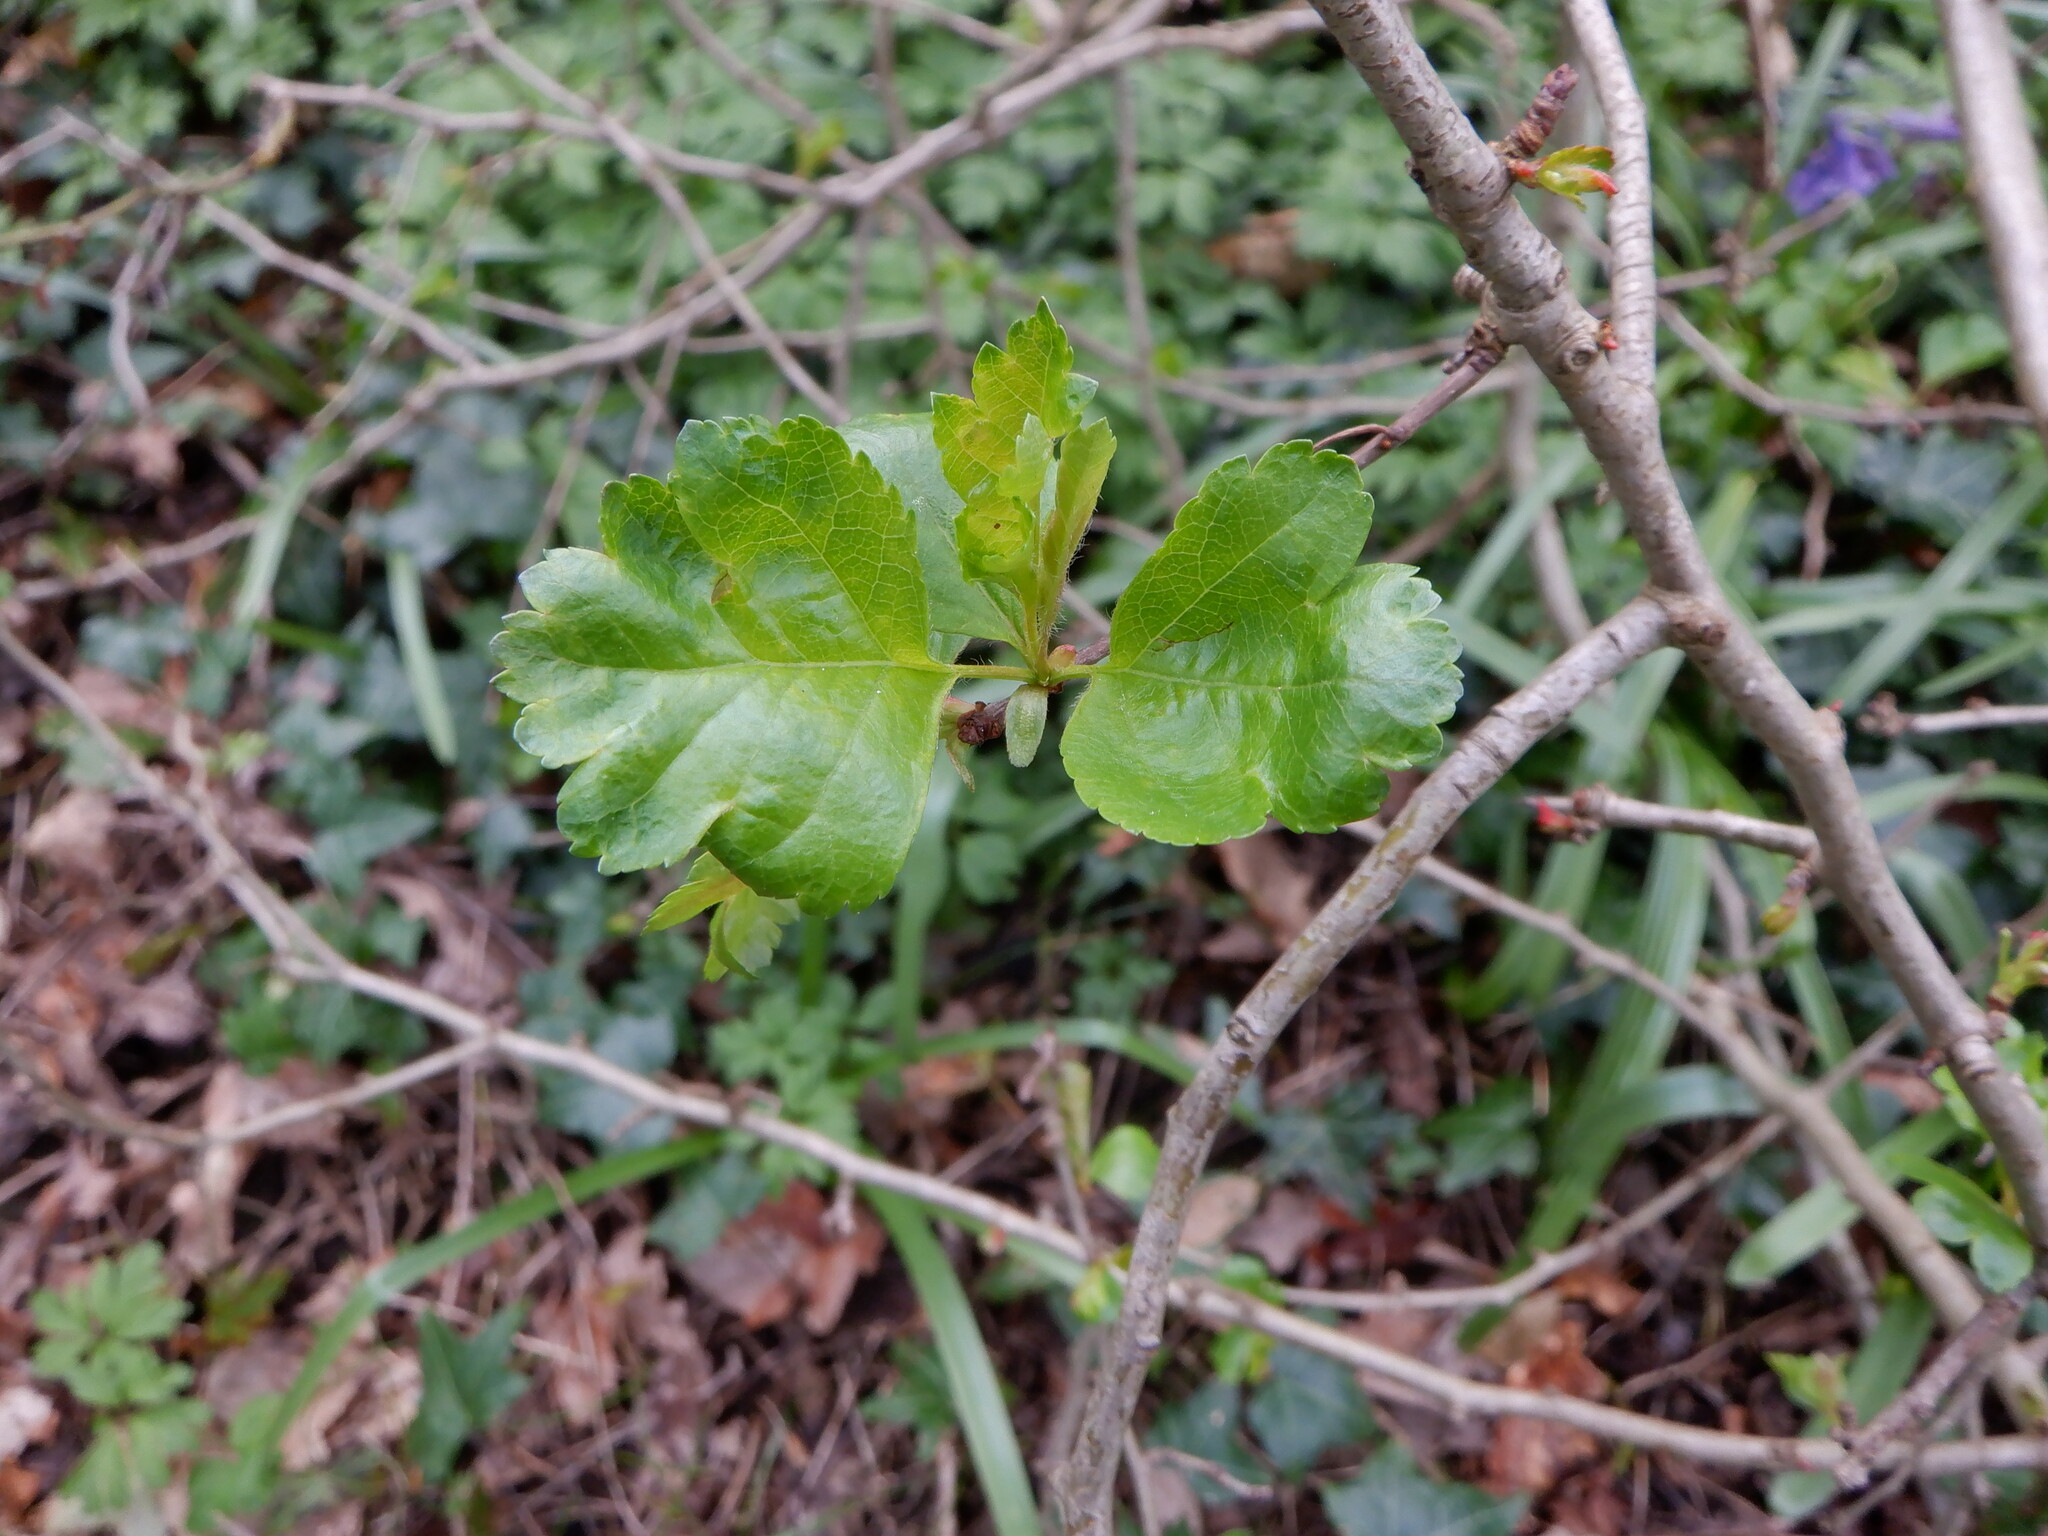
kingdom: Plantae
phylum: Tracheophyta
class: Magnoliopsida
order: Rosales
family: Rosaceae
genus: Crataegus
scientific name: Crataegus laevigata
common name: Midland hawthorn
